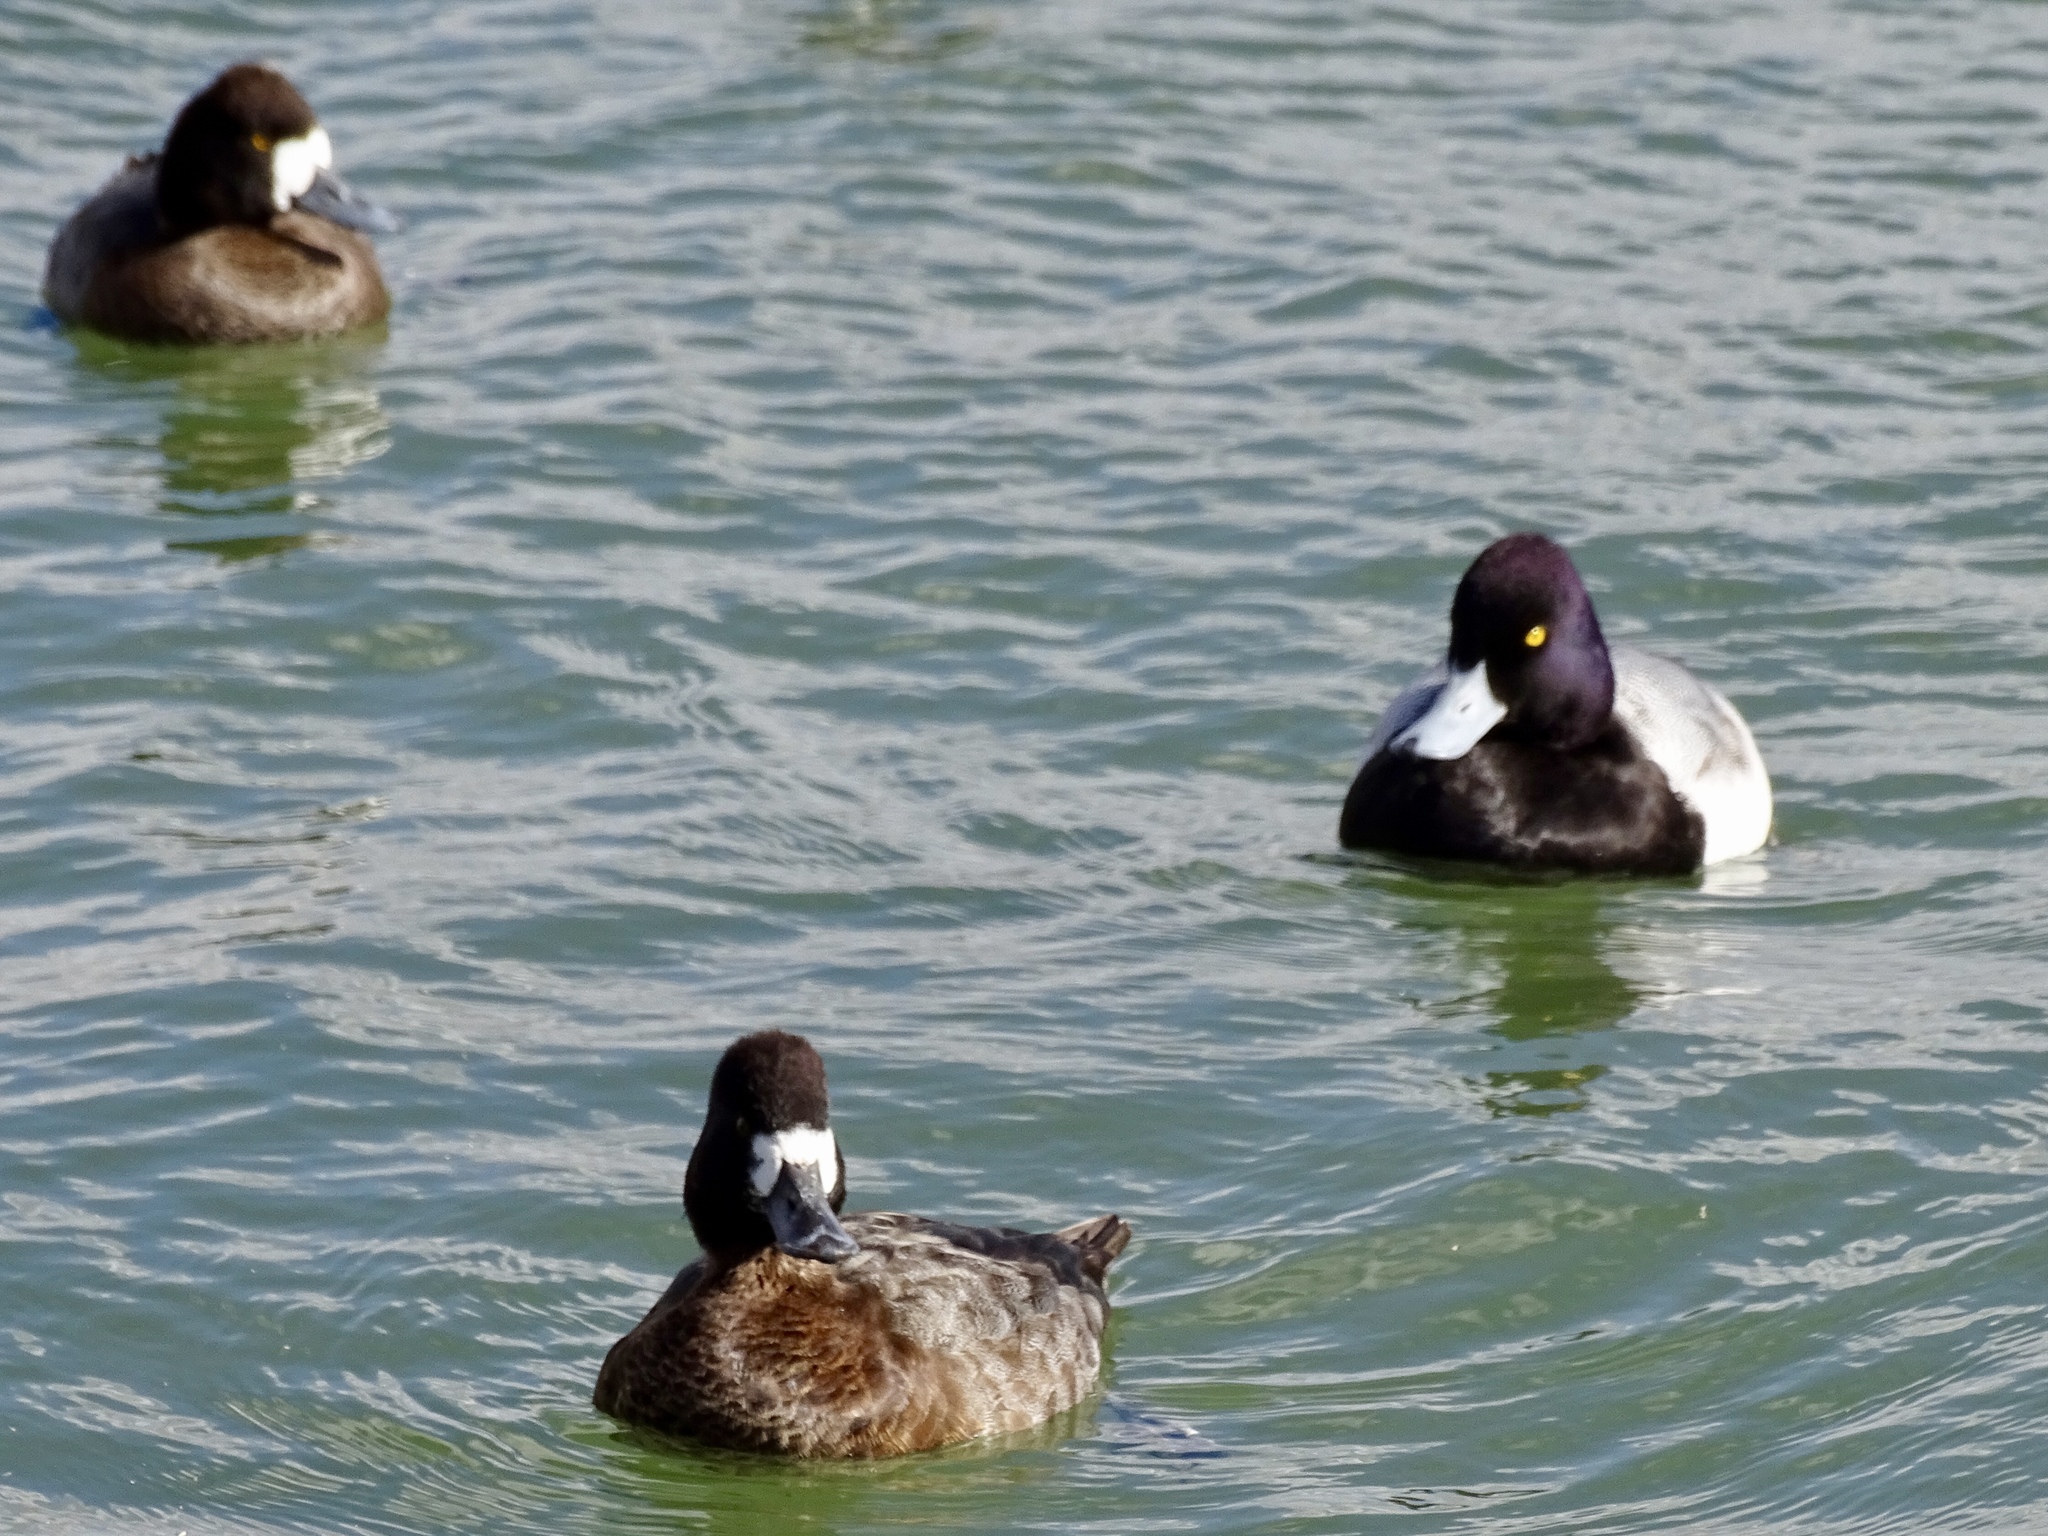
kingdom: Animalia
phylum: Chordata
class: Aves
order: Anseriformes
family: Anatidae
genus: Aythya
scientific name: Aythya affinis
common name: Lesser scaup
